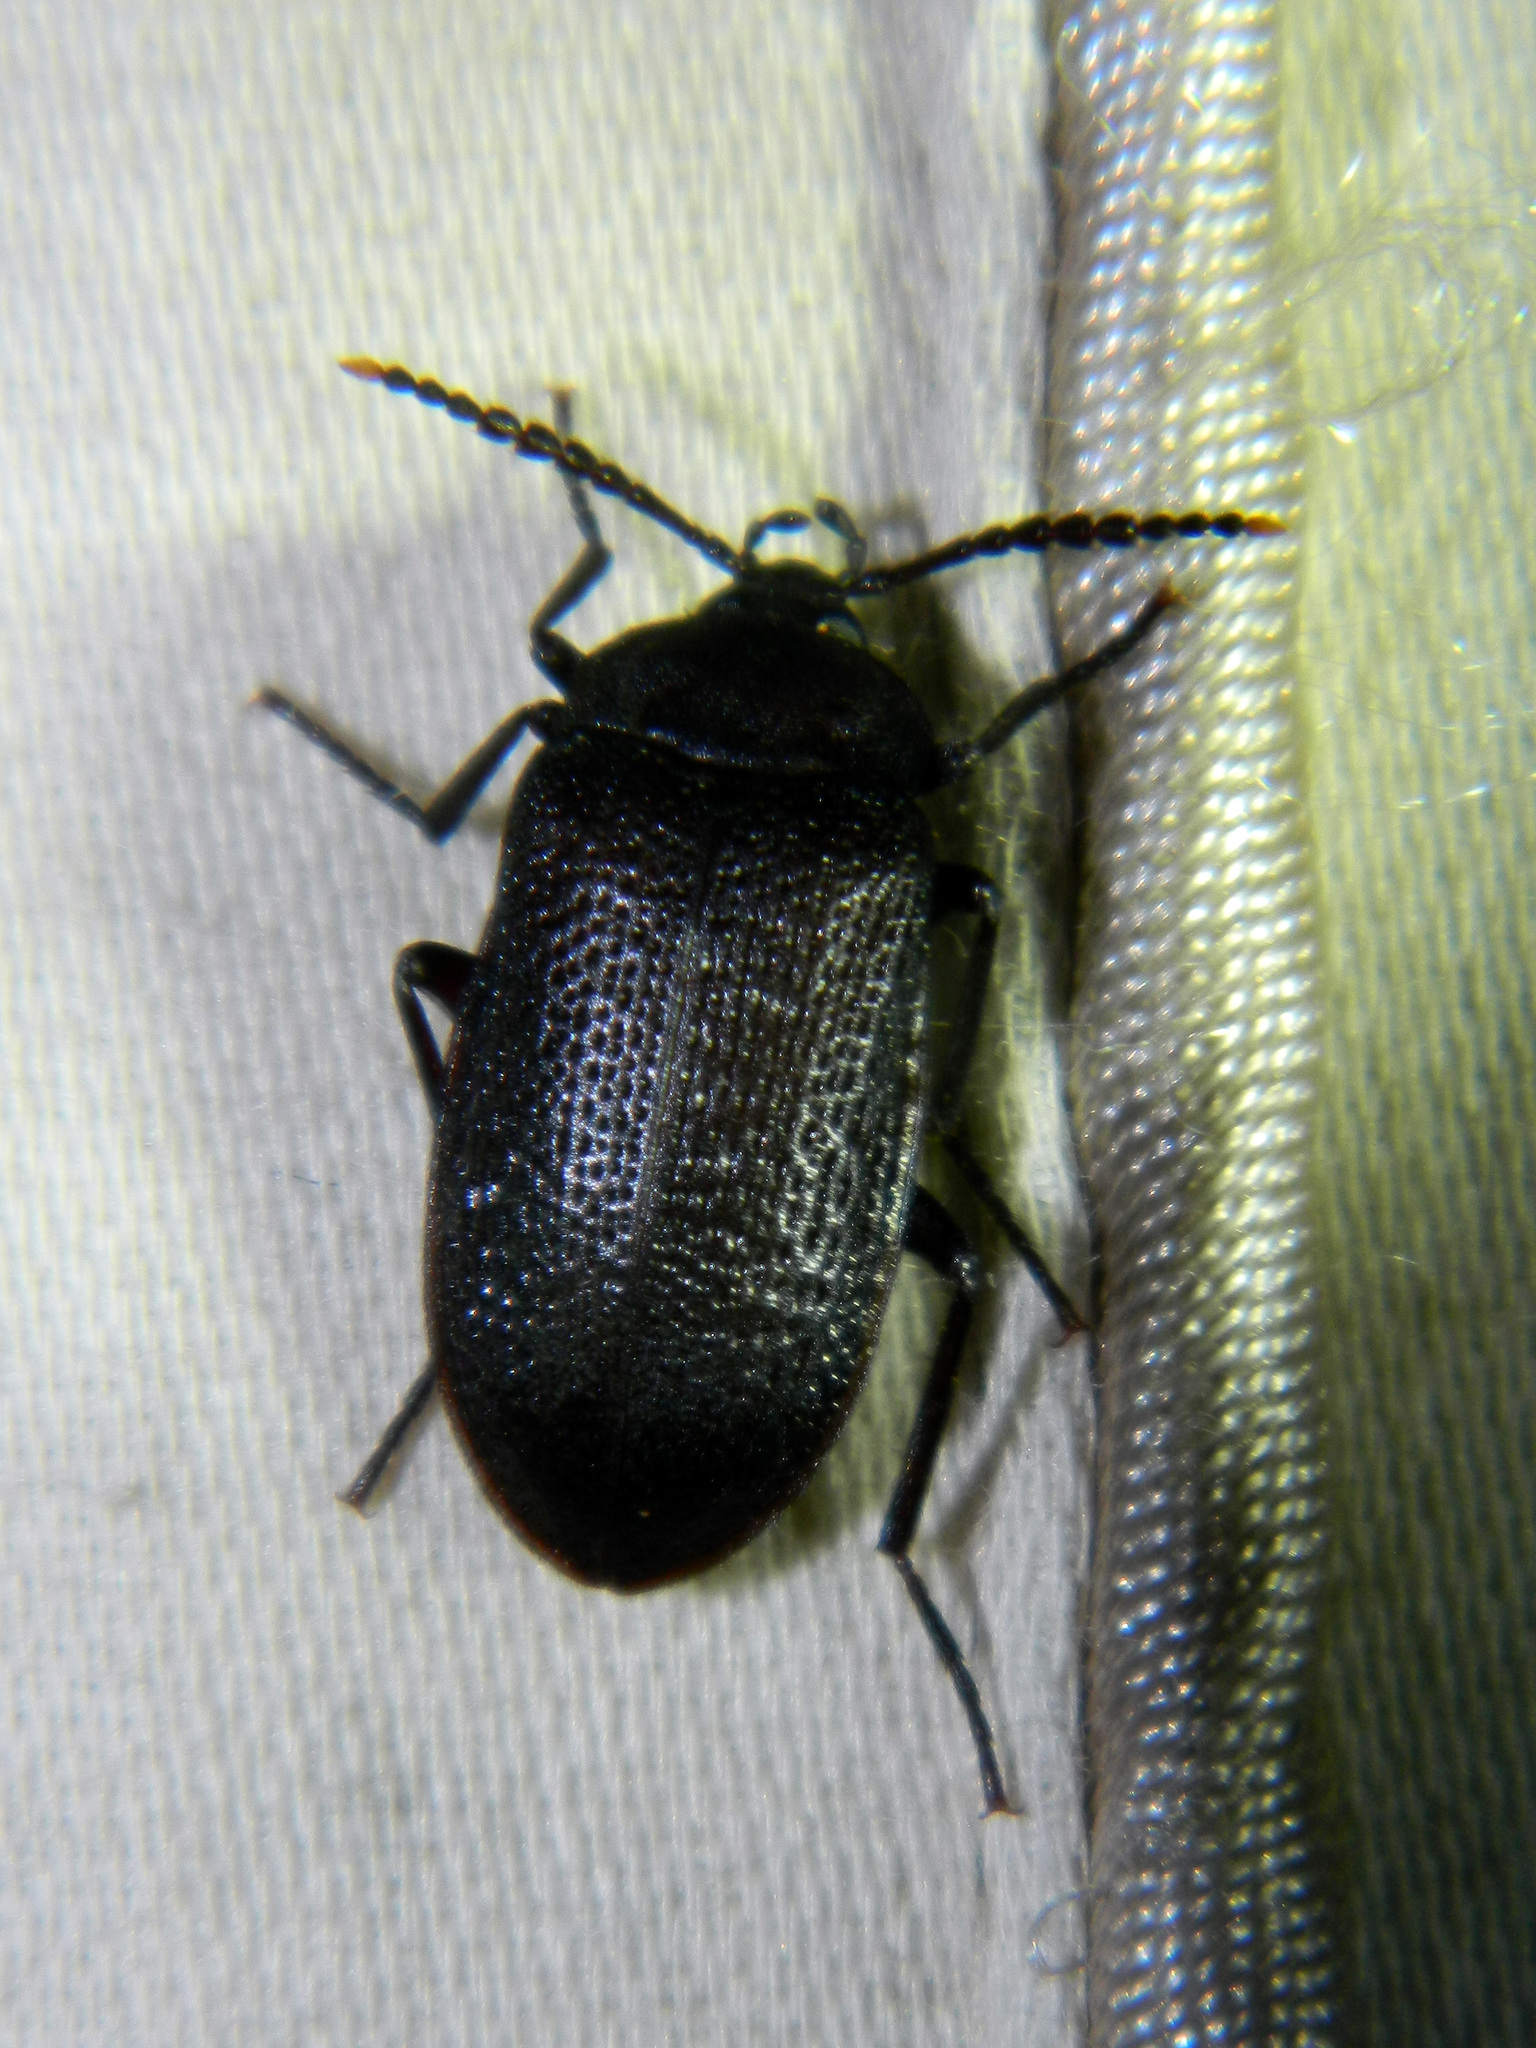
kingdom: Animalia
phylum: Arthropoda
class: Insecta
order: Coleoptera
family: Tetratomidae
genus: Penthe
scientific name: Penthe pimelia
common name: Velvety bark beetle
